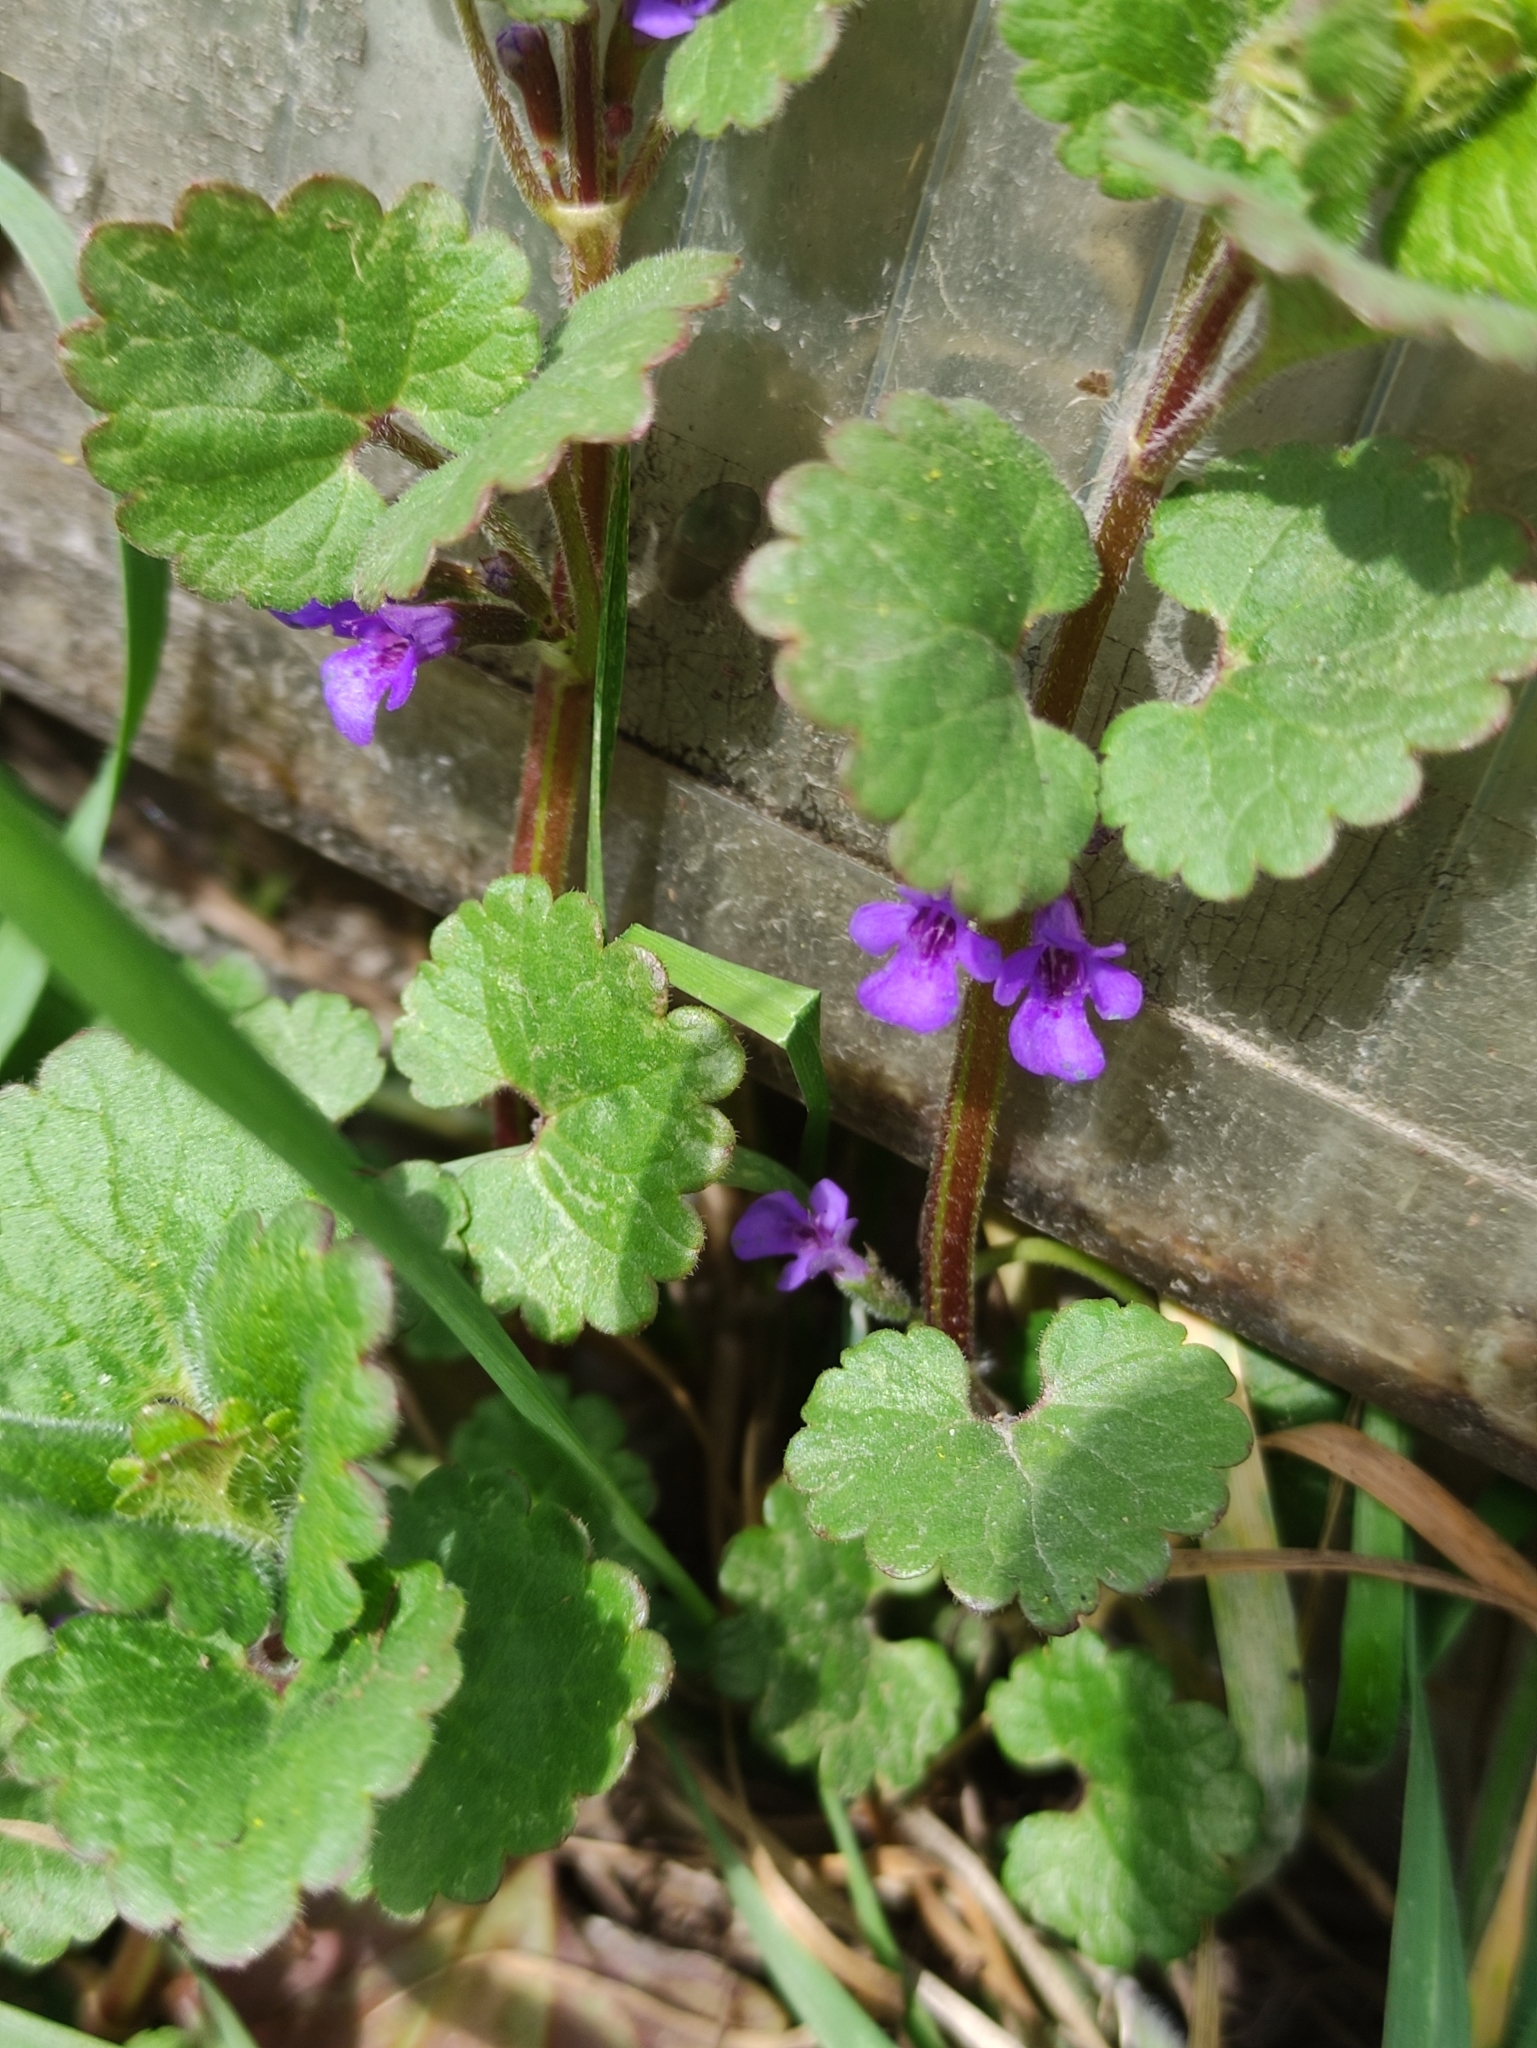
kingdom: Plantae
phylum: Tracheophyta
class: Magnoliopsida
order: Lamiales
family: Lamiaceae
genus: Glechoma
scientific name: Glechoma hederacea
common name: Ground ivy
